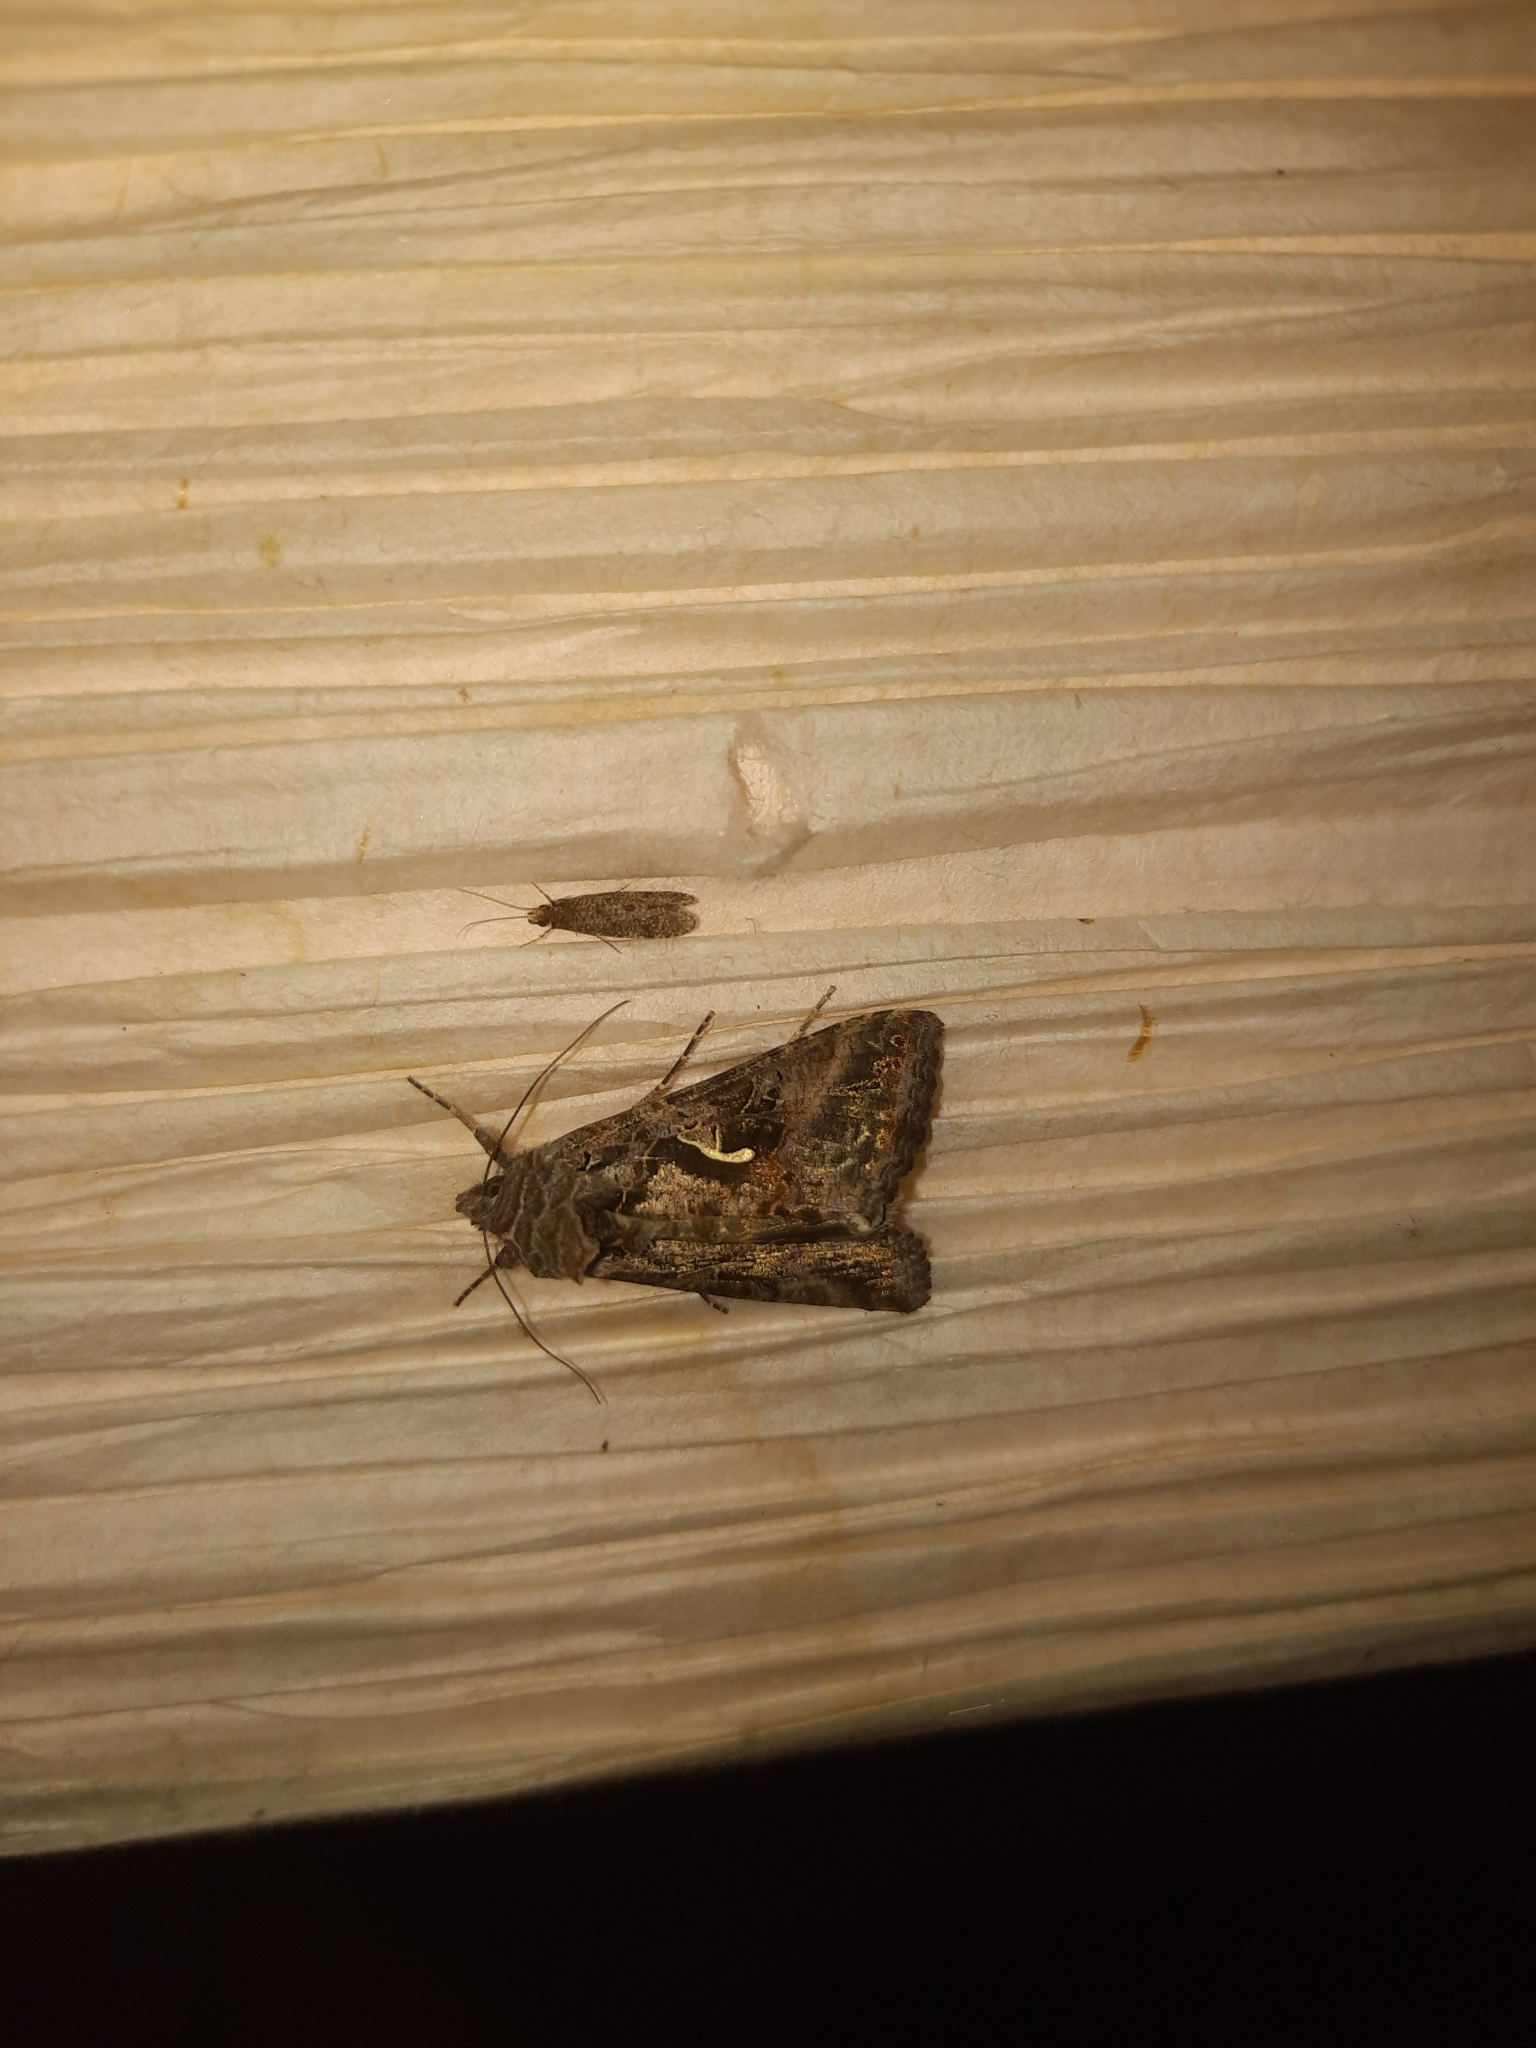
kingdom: Animalia
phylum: Arthropoda
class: Insecta
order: Lepidoptera
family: Noctuidae
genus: Autographa
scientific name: Autographa gamma
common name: Silver y
